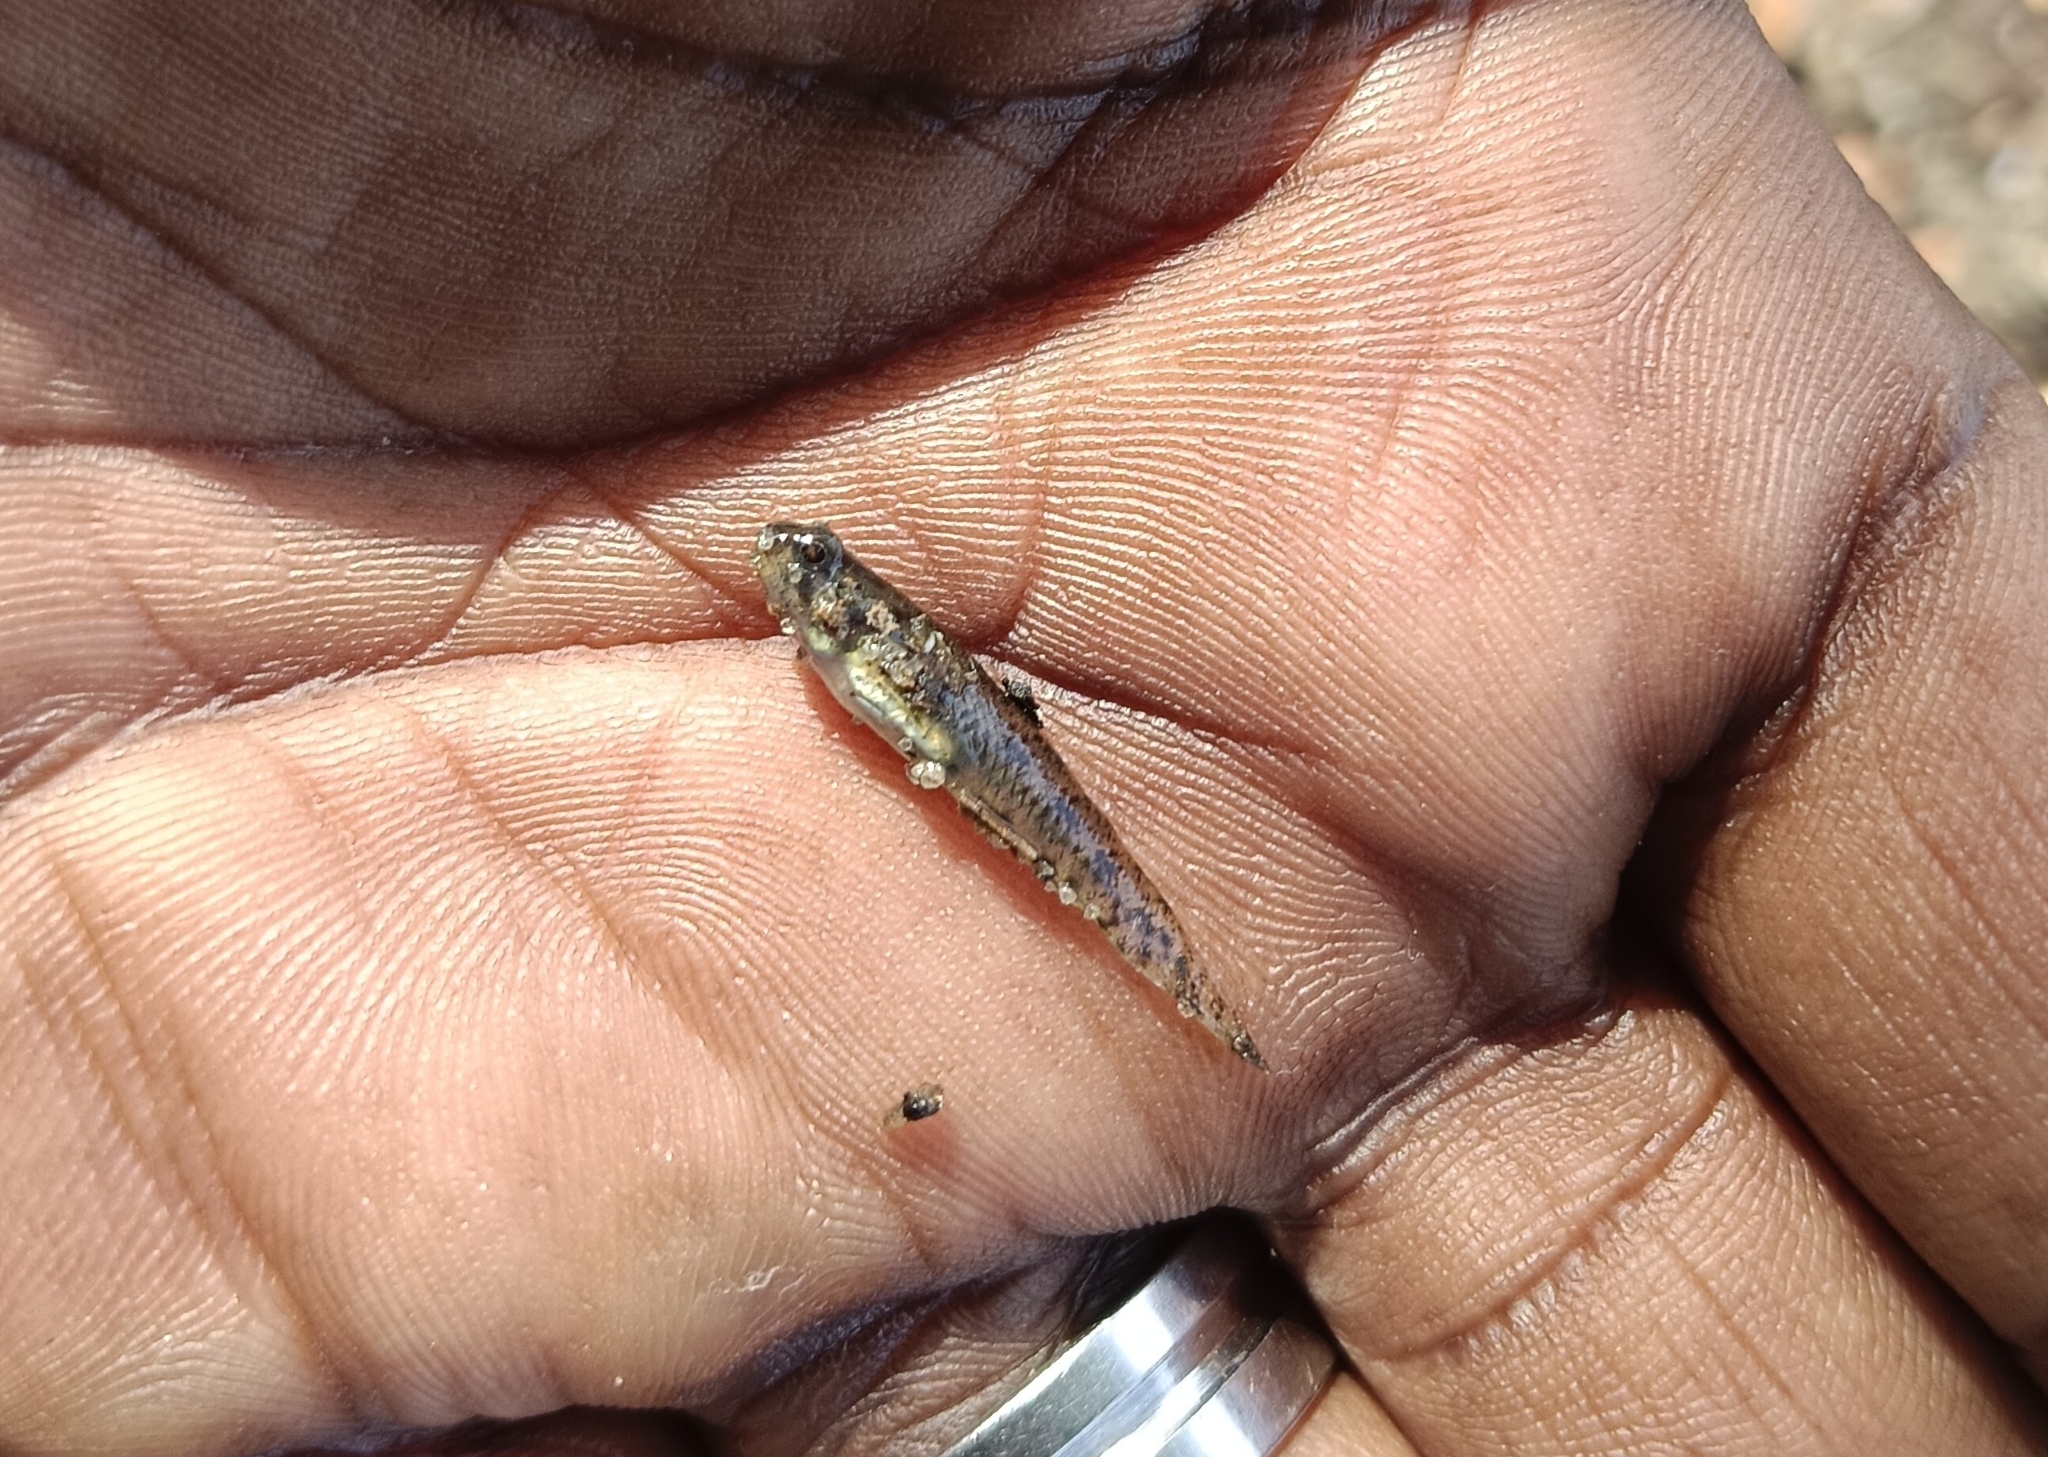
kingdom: Animalia
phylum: Chordata
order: Perciformes
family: Gobiidae
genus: Pseudogobius
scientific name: Pseudogobius
